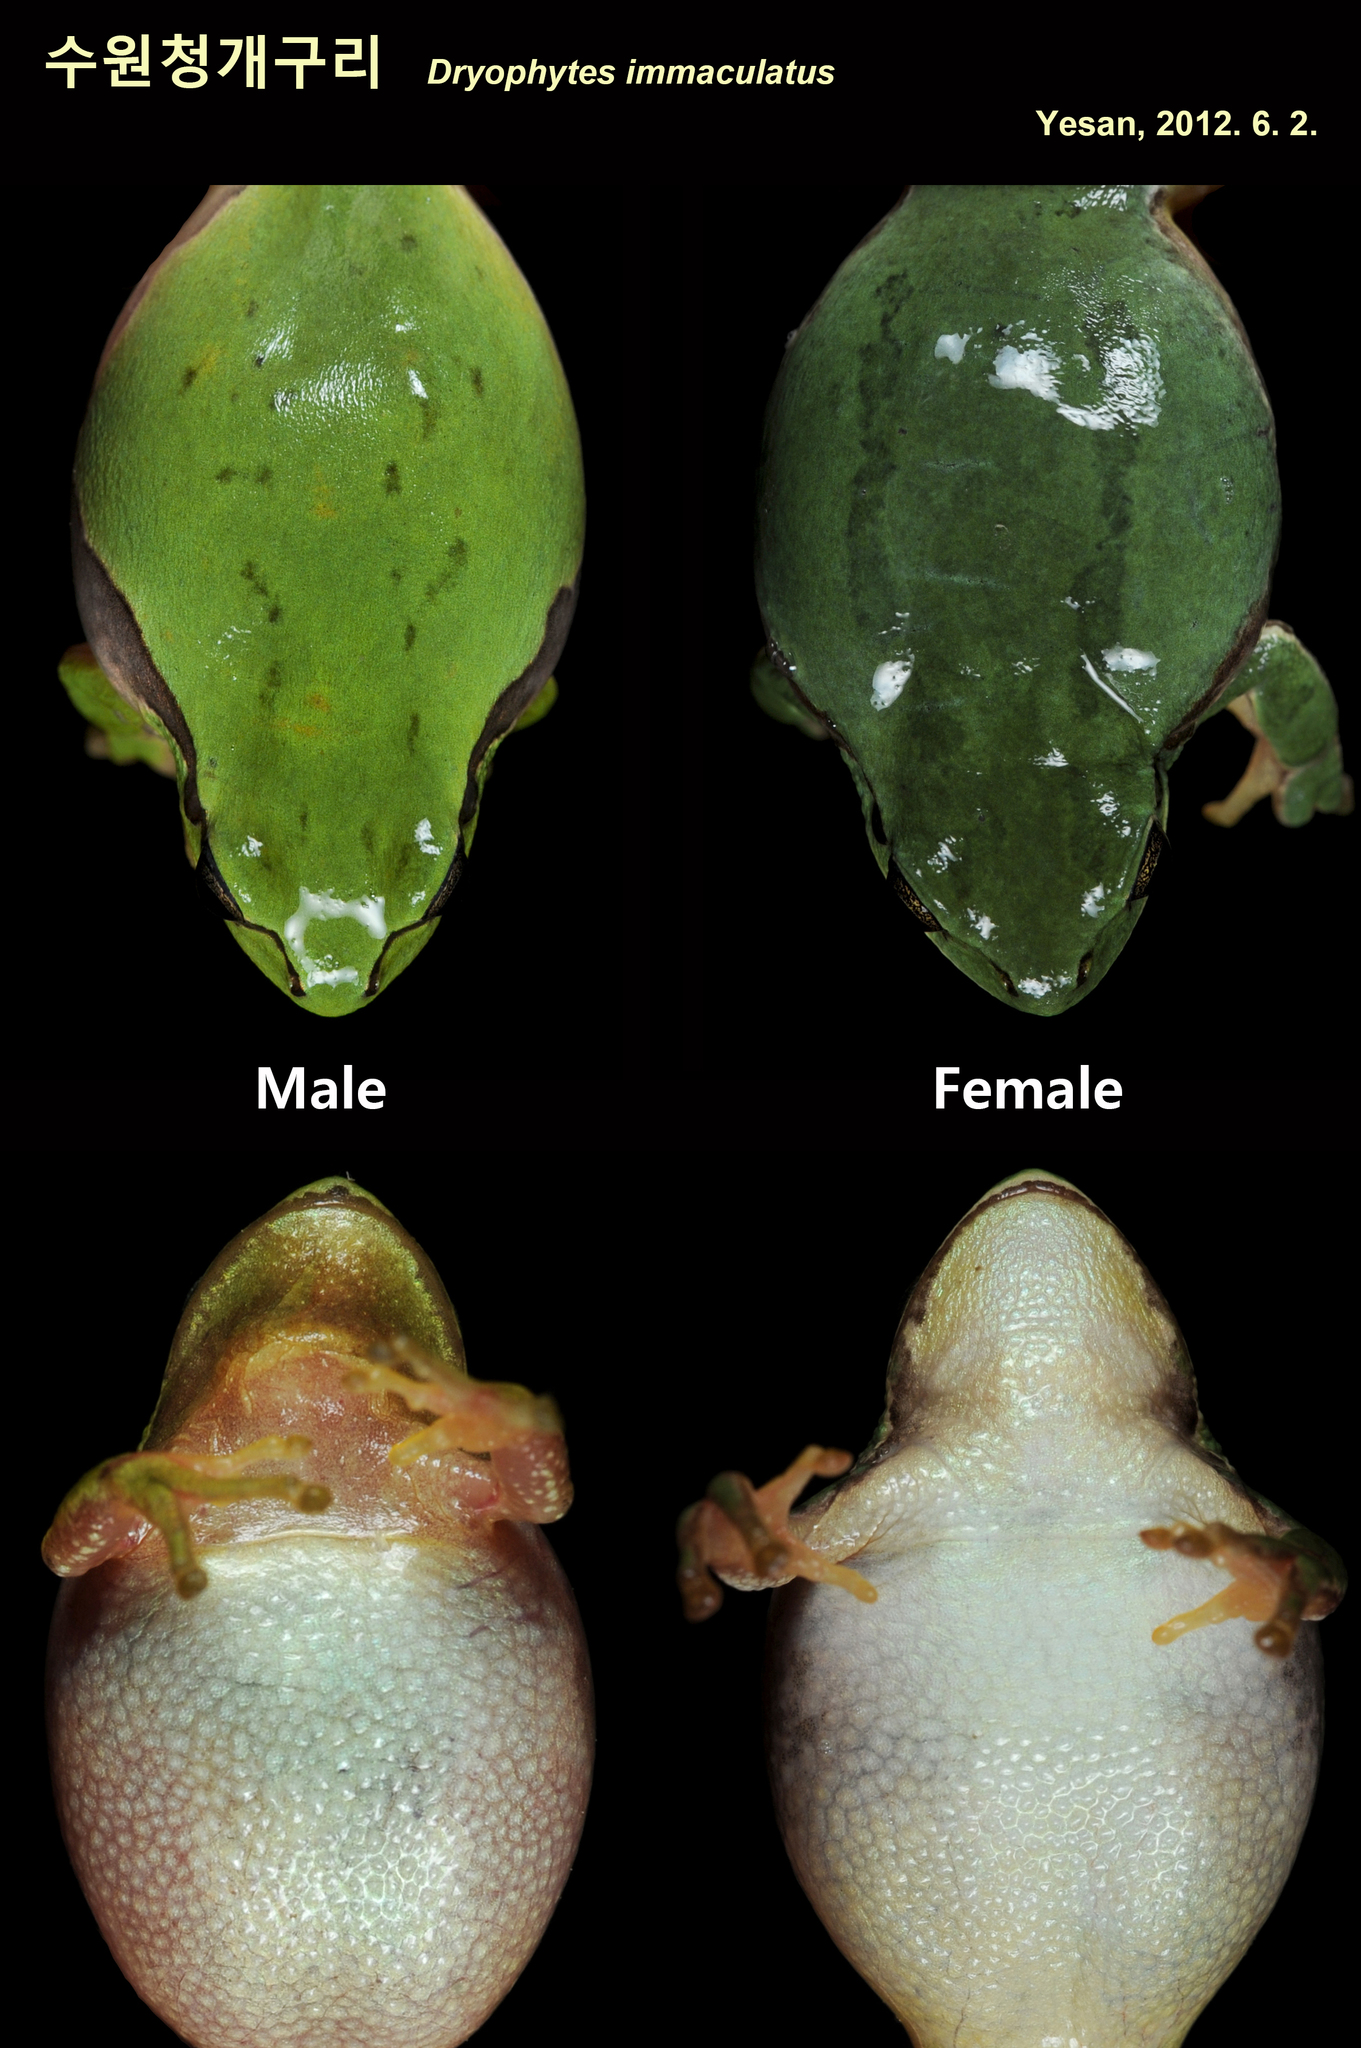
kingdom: Animalia
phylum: Chordata
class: Amphibia
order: Anura
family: Hylidae
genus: Dryophytes
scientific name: Dryophytes immaculatus
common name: North china treefrog
